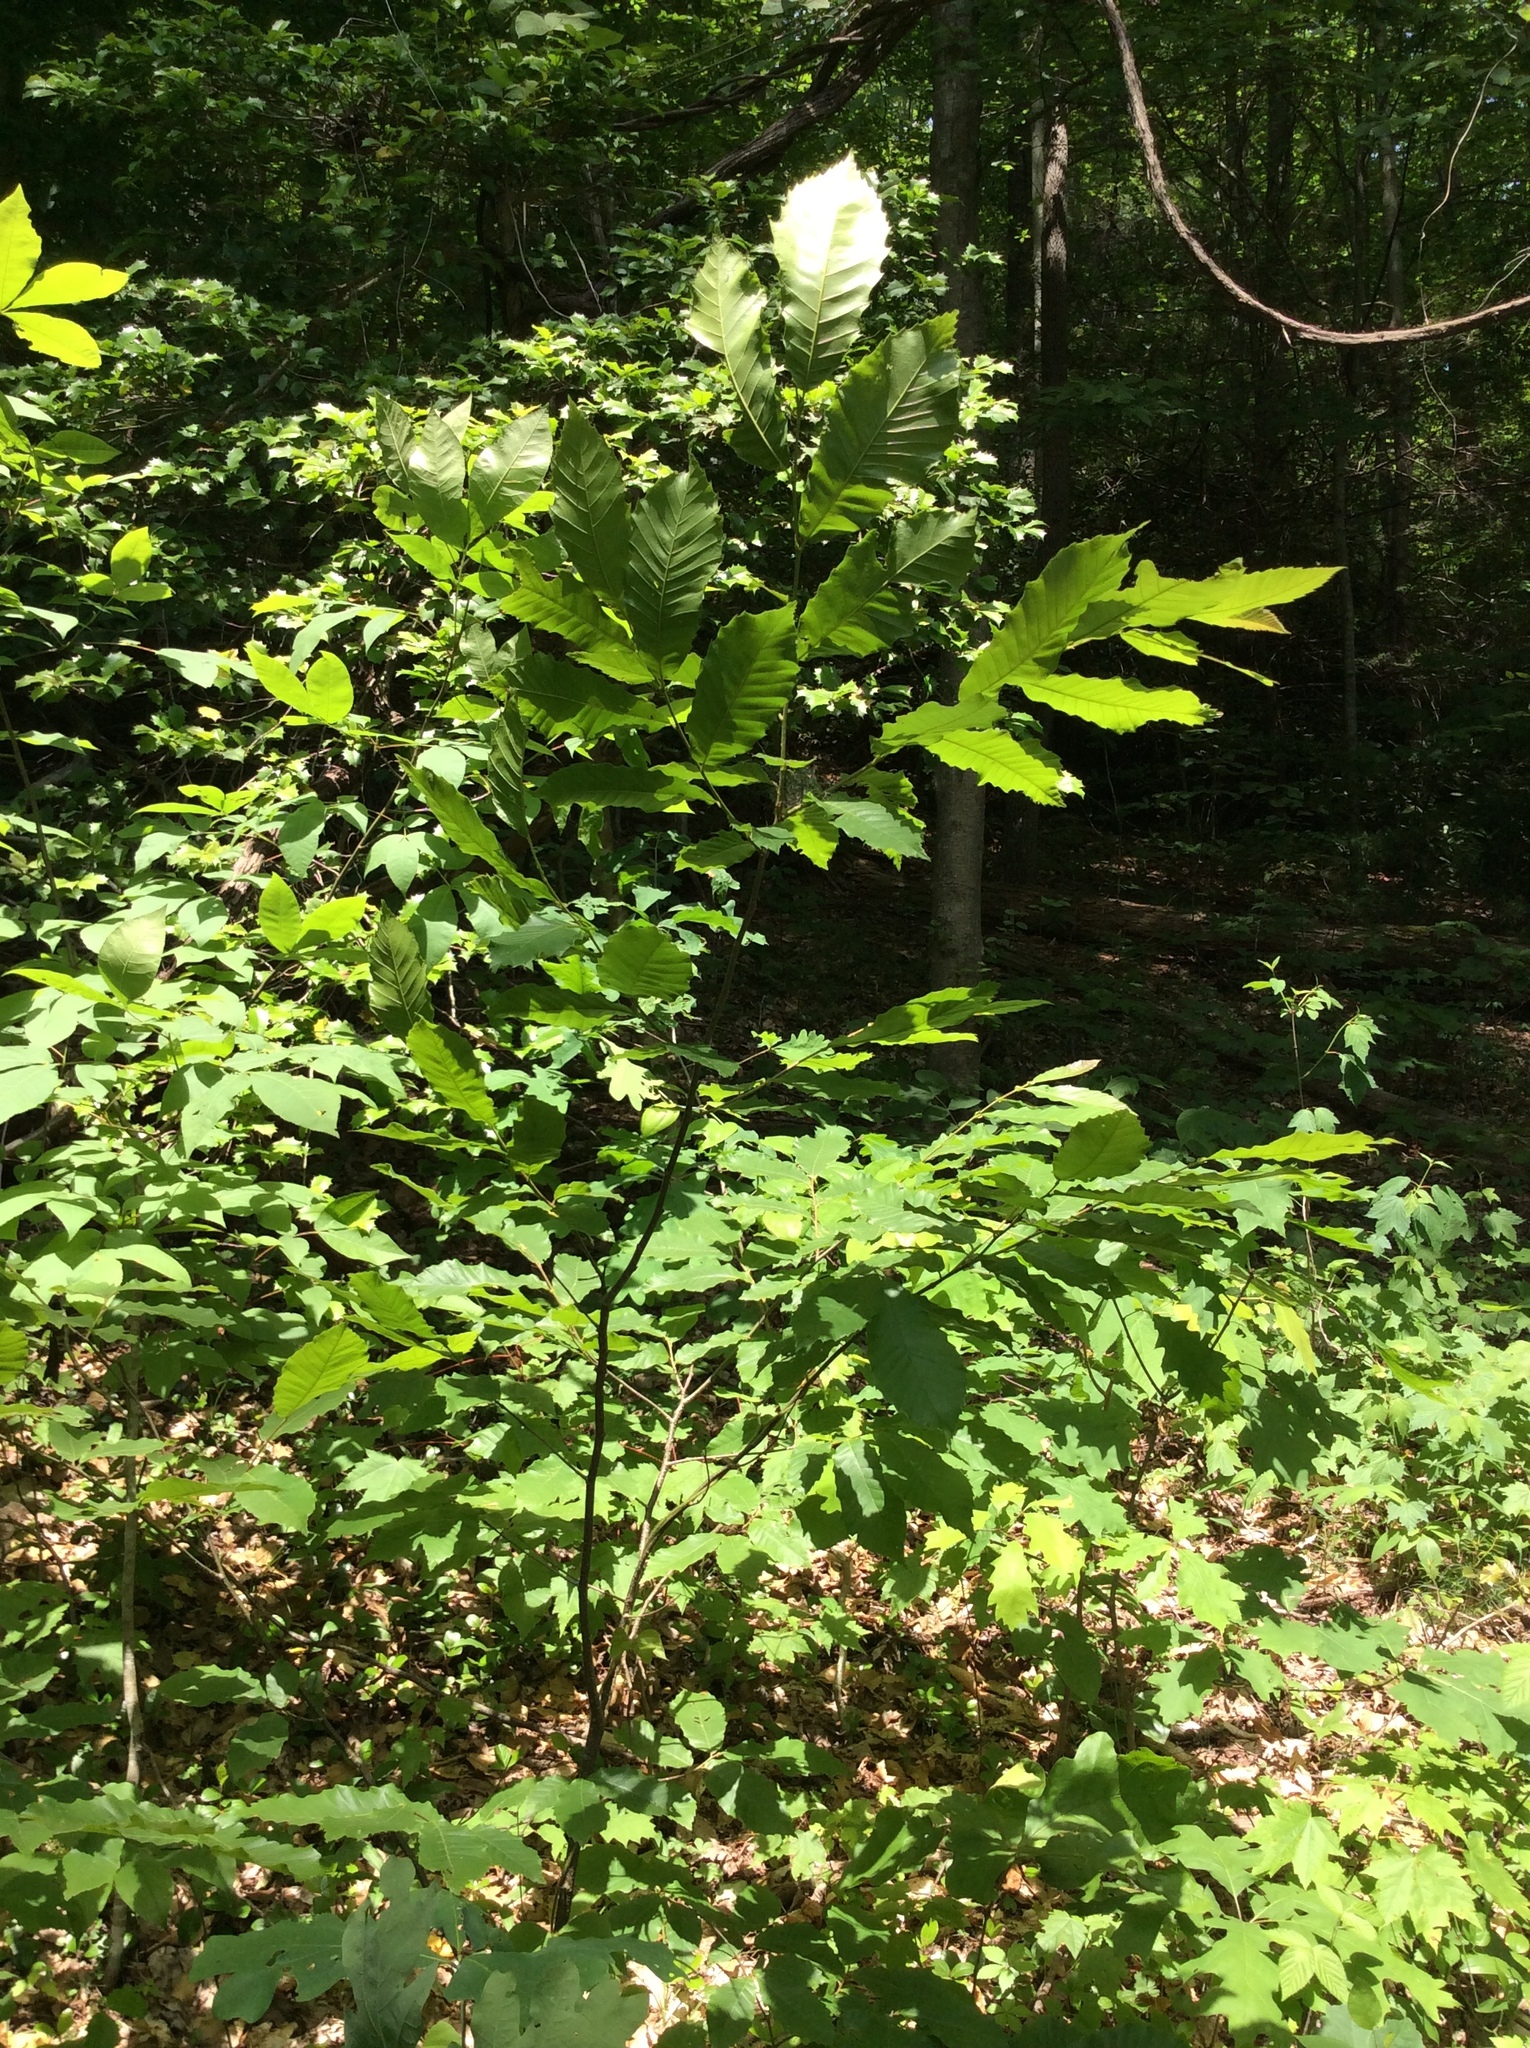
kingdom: Plantae
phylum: Tracheophyta
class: Magnoliopsida
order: Fagales
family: Fagaceae
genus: Castanea
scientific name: Castanea pumila
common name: Chinkapin
